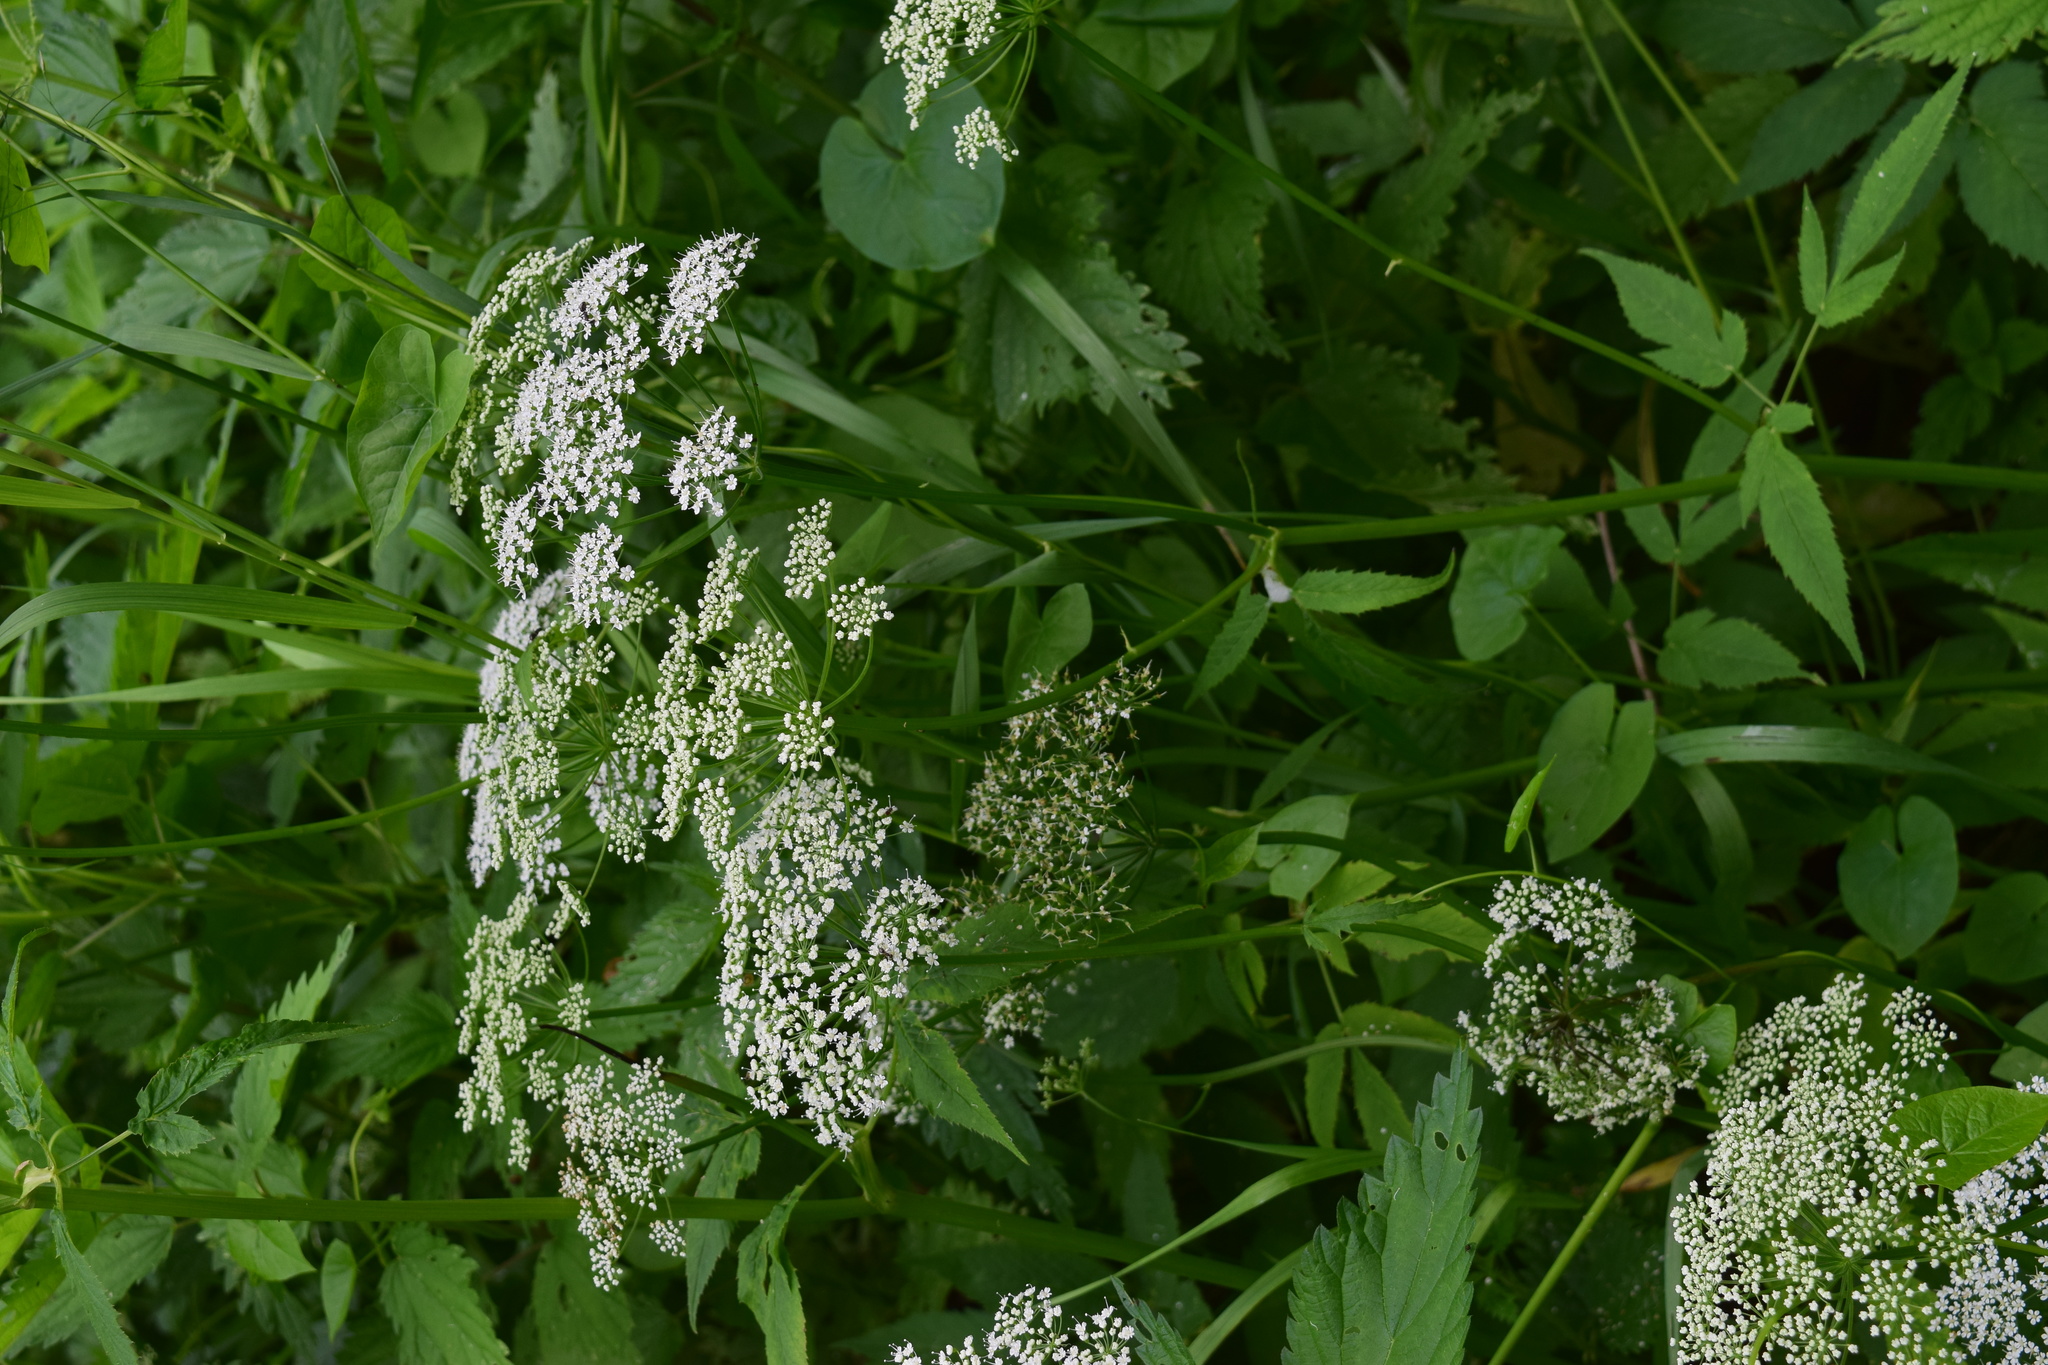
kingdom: Plantae
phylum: Tracheophyta
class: Magnoliopsida
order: Apiales
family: Apiaceae
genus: Aegopodium
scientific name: Aegopodium podagraria
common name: Ground-elder
